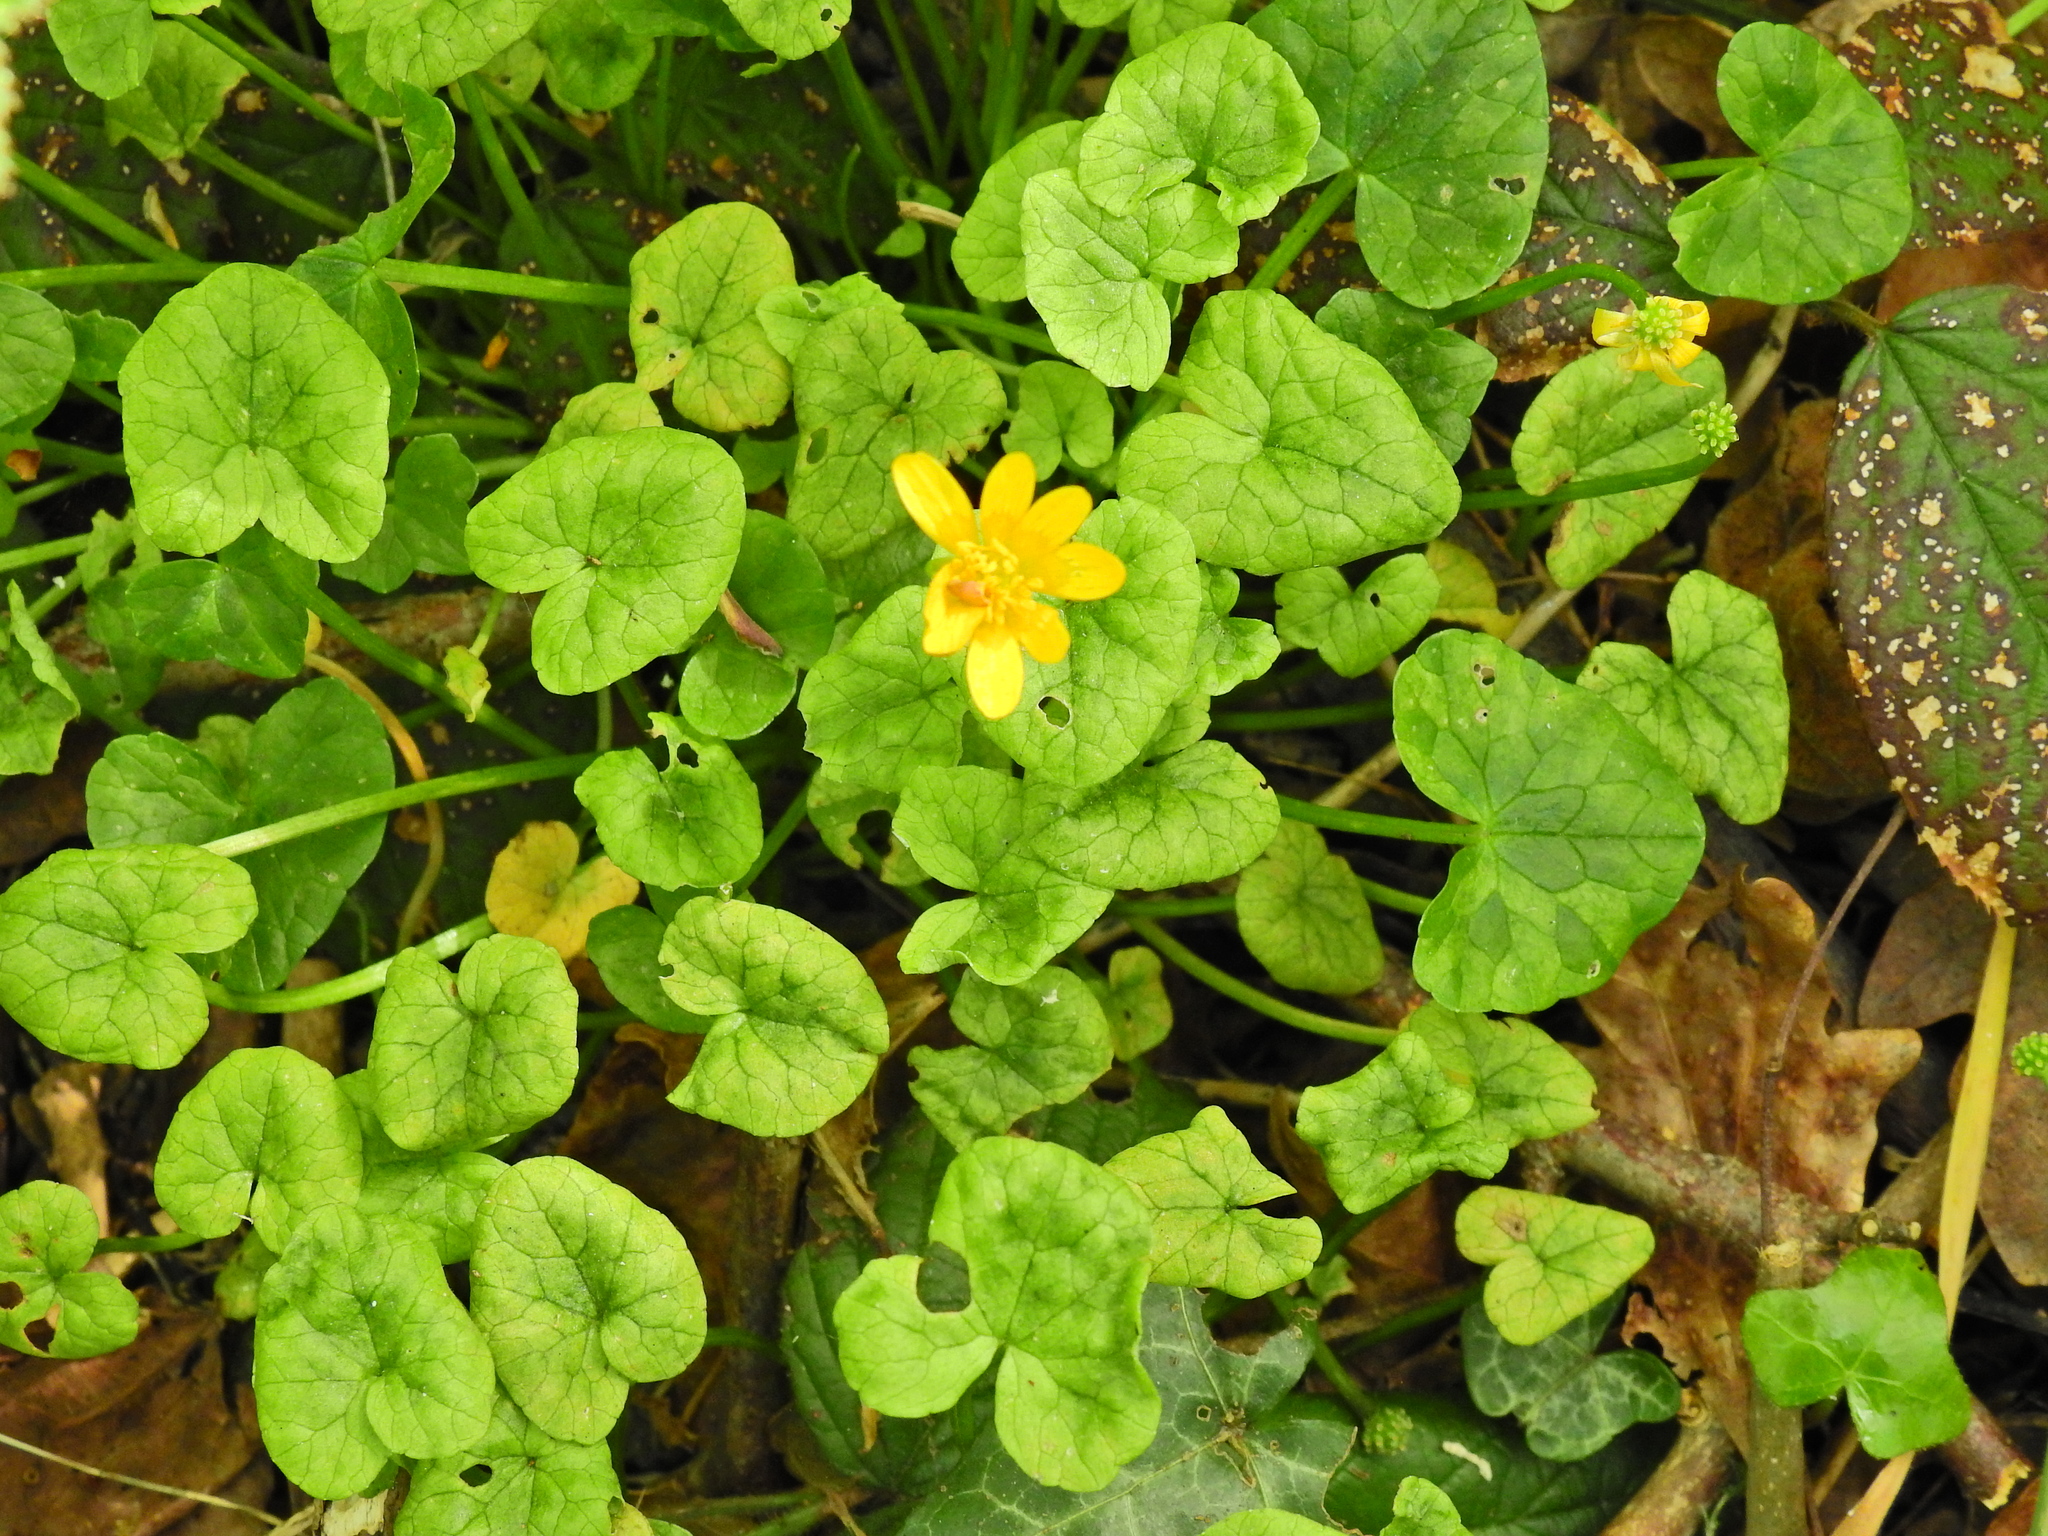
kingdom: Plantae
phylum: Tracheophyta
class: Magnoliopsida
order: Ranunculales
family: Ranunculaceae
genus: Ficaria
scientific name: Ficaria verna
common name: Lesser celandine
